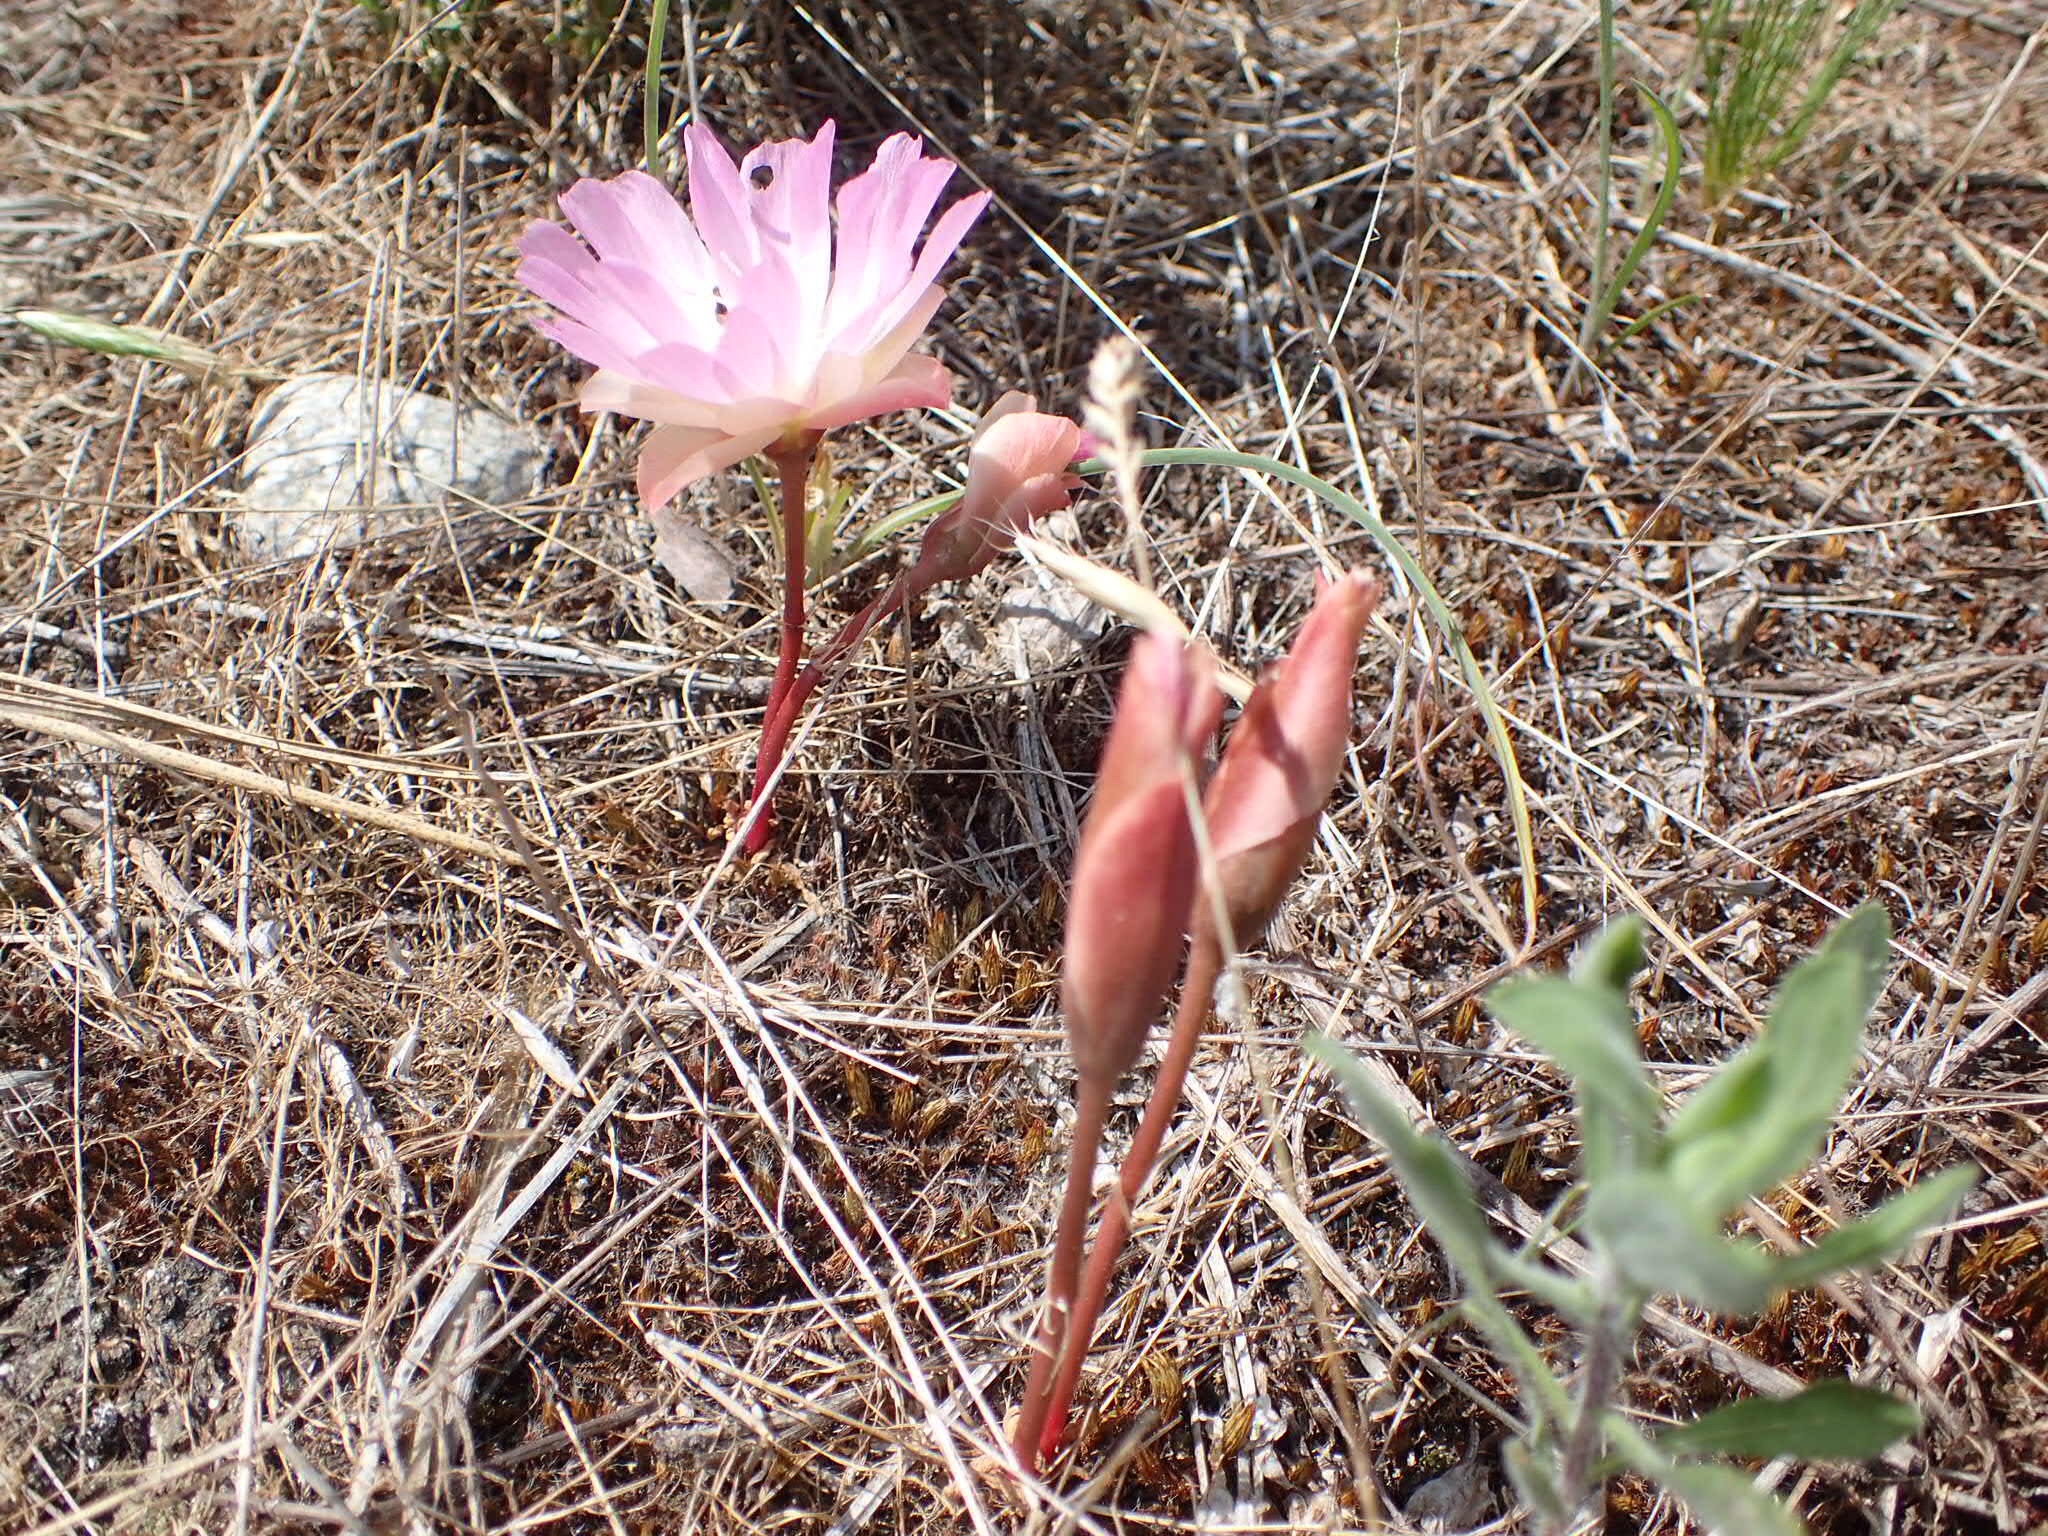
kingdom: Plantae
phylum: Tracheophyta
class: Magnoliopsida
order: Caryophyllales
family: Montiaceae
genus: Lewisia
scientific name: Lewisia rediviva
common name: Bitter-root
